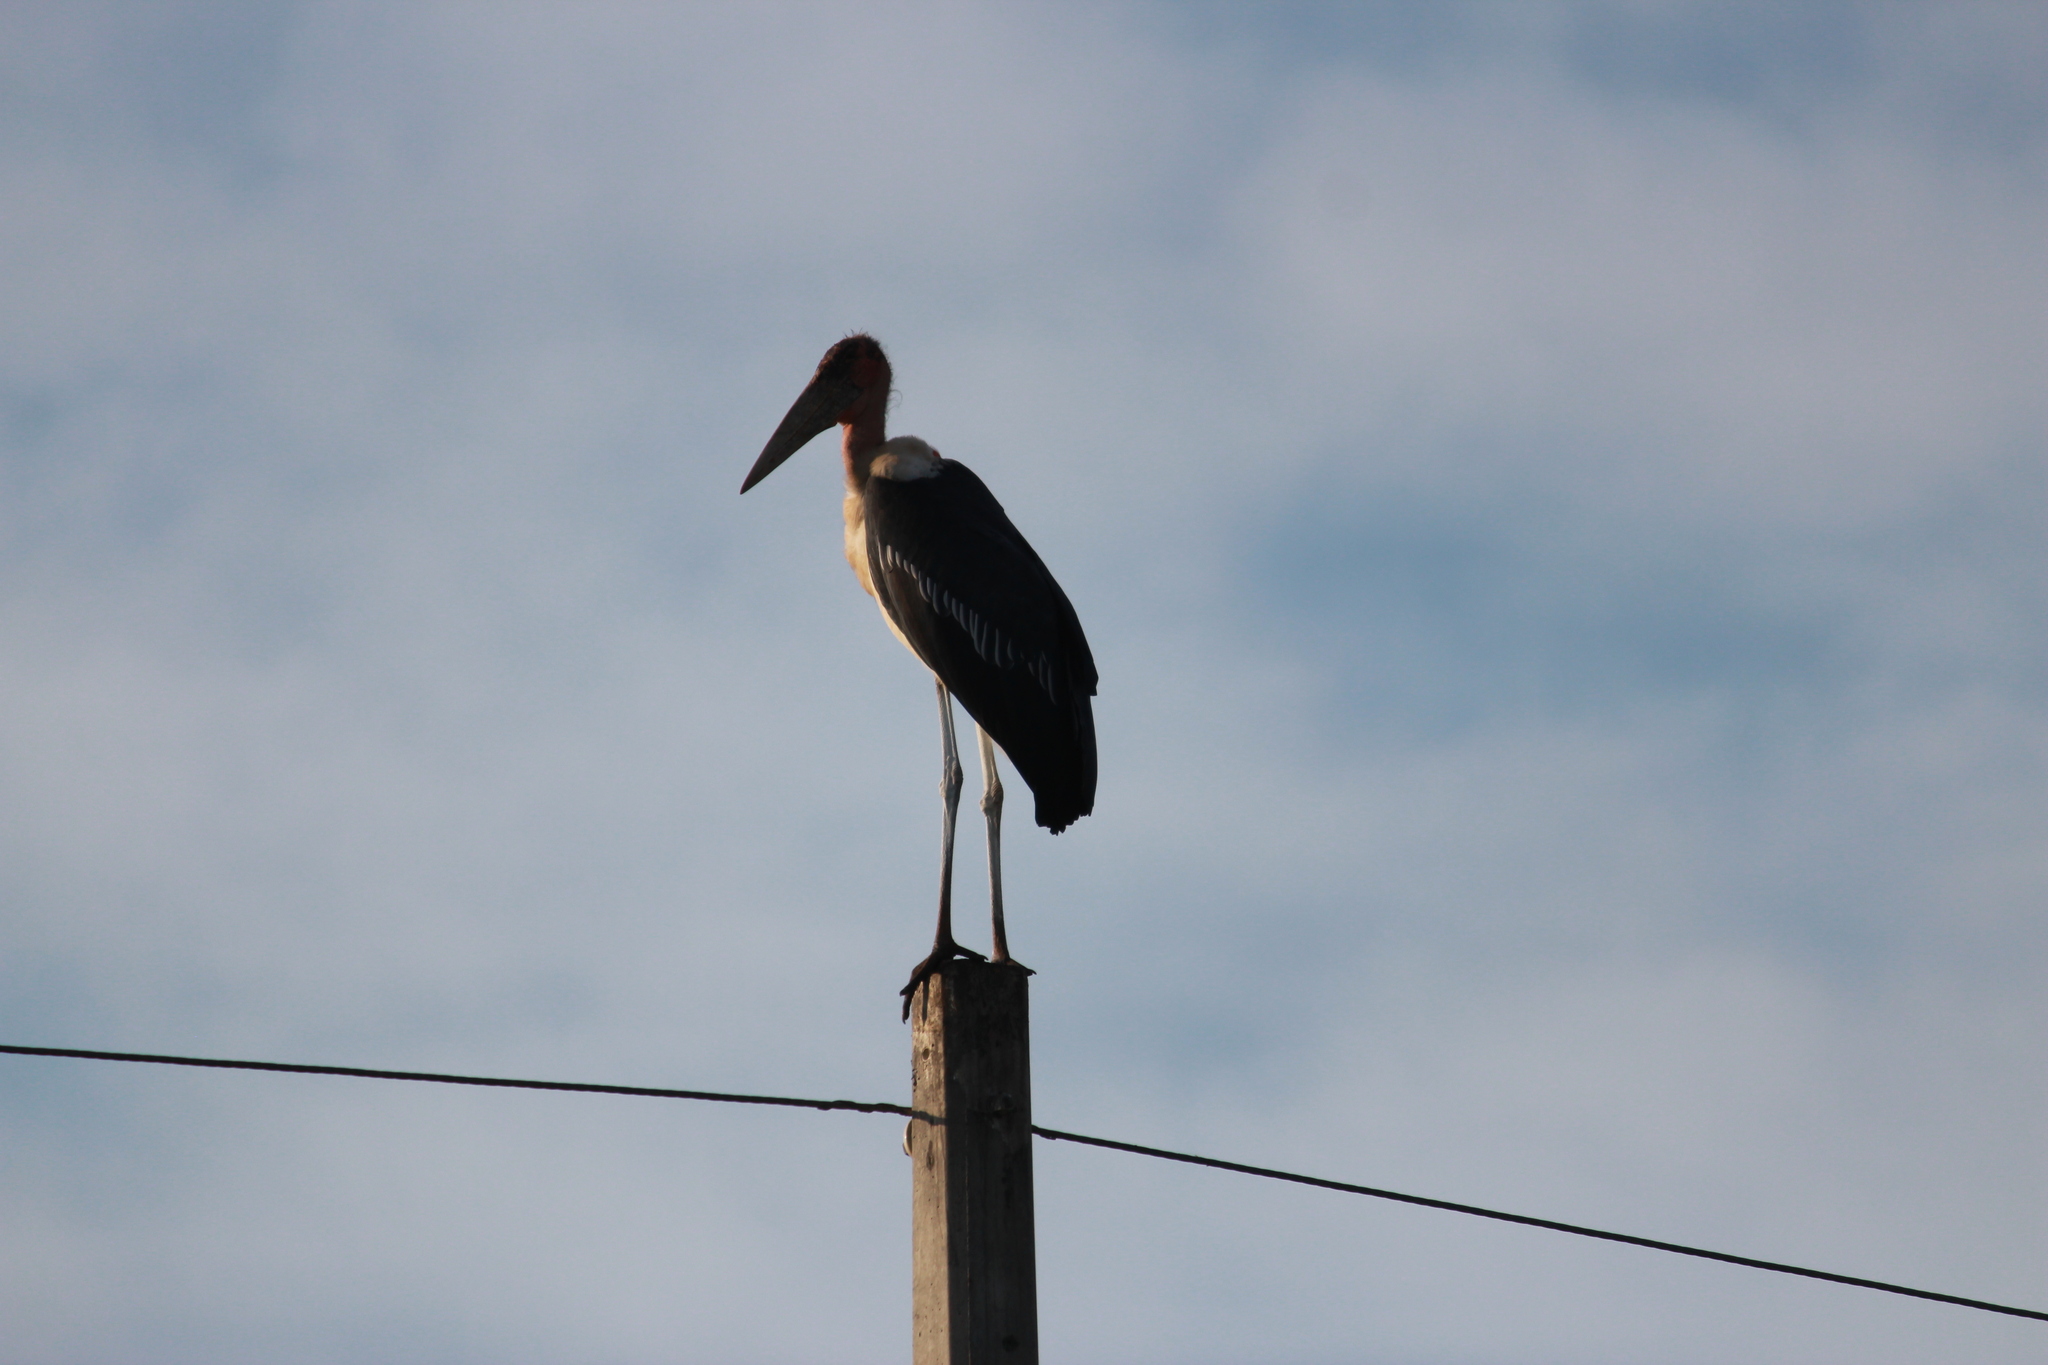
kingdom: Animalia
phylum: Chordata
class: Aves
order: Ciconiiformes
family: Ciconiidae
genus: Leptoptilos
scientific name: Leptoptilos crumenifer
